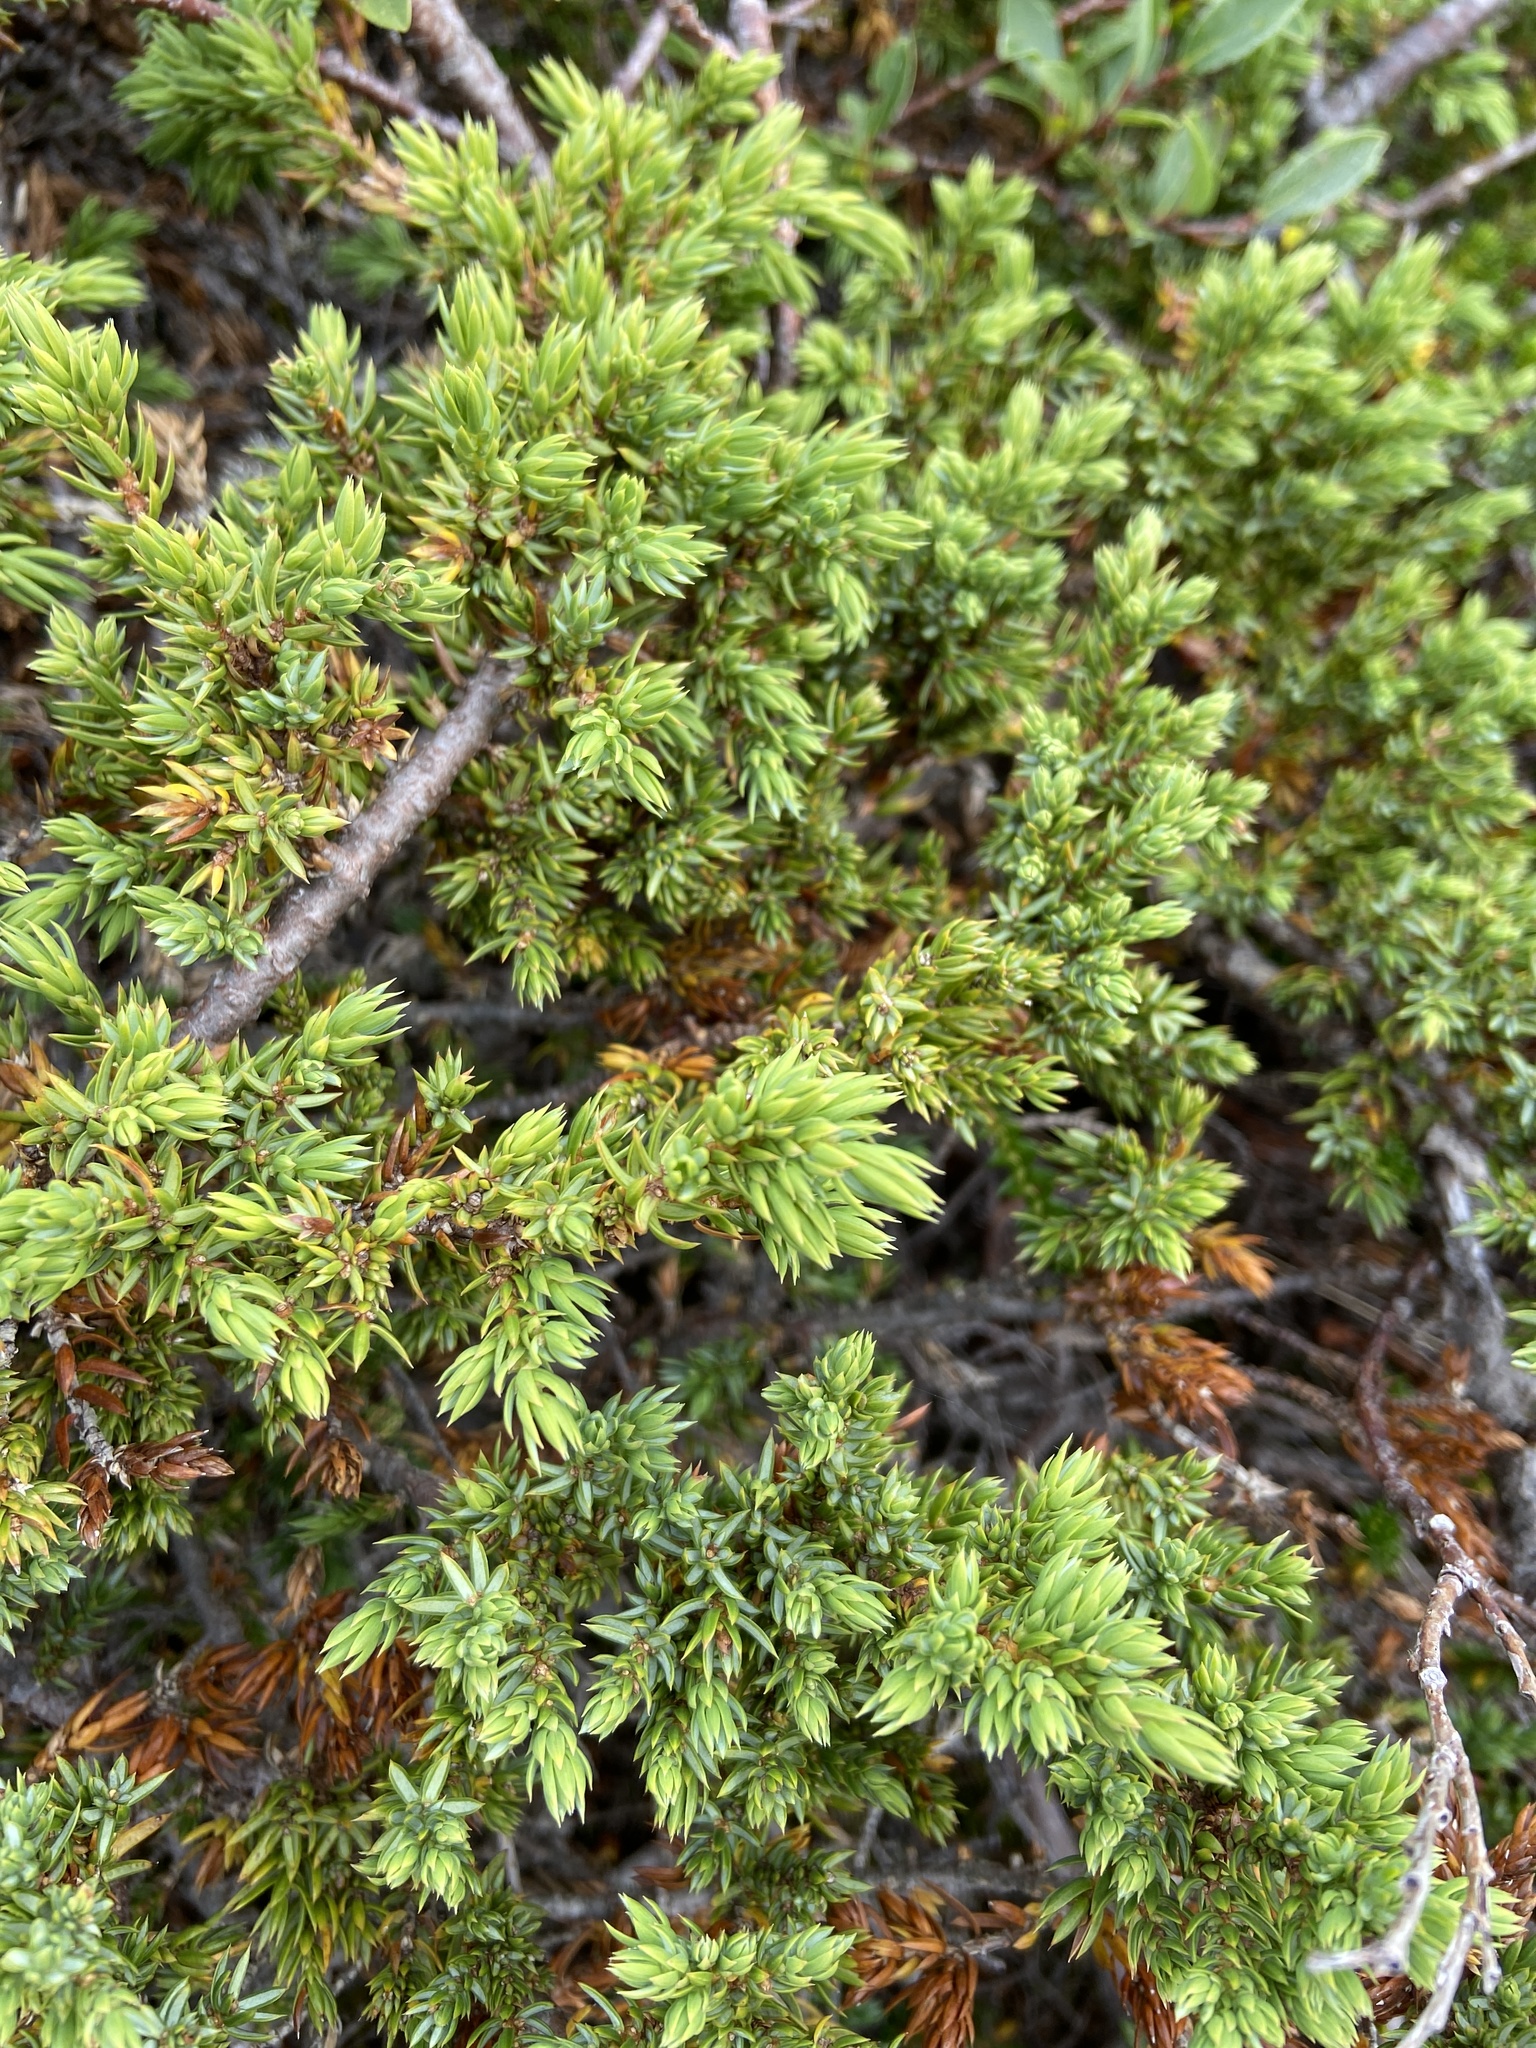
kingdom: Plantae
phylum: Tracheophyta
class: Pinopsida
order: Pinales
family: Cupressaceae
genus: Juniperus
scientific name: Juniperus communis
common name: Common juniper
